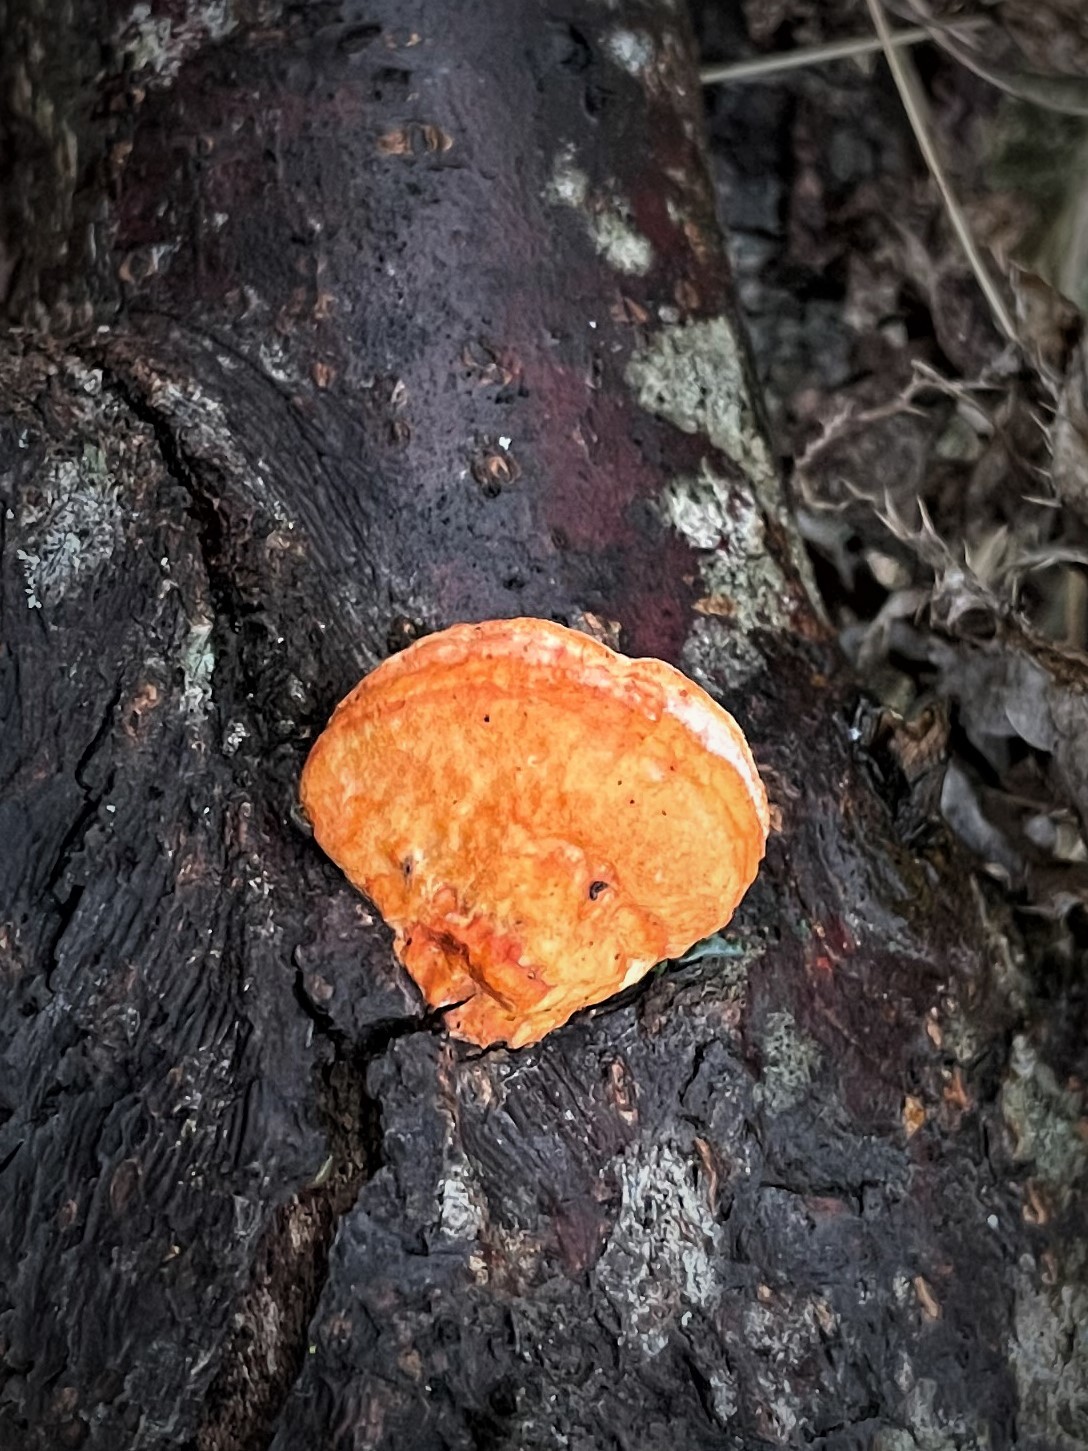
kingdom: Fungi
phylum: Basidiomycota
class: Agaricomycetes
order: Polyporales
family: Pycnoporellaceae
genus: Pycnoporellus
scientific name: Pycnoporellus fulgens
